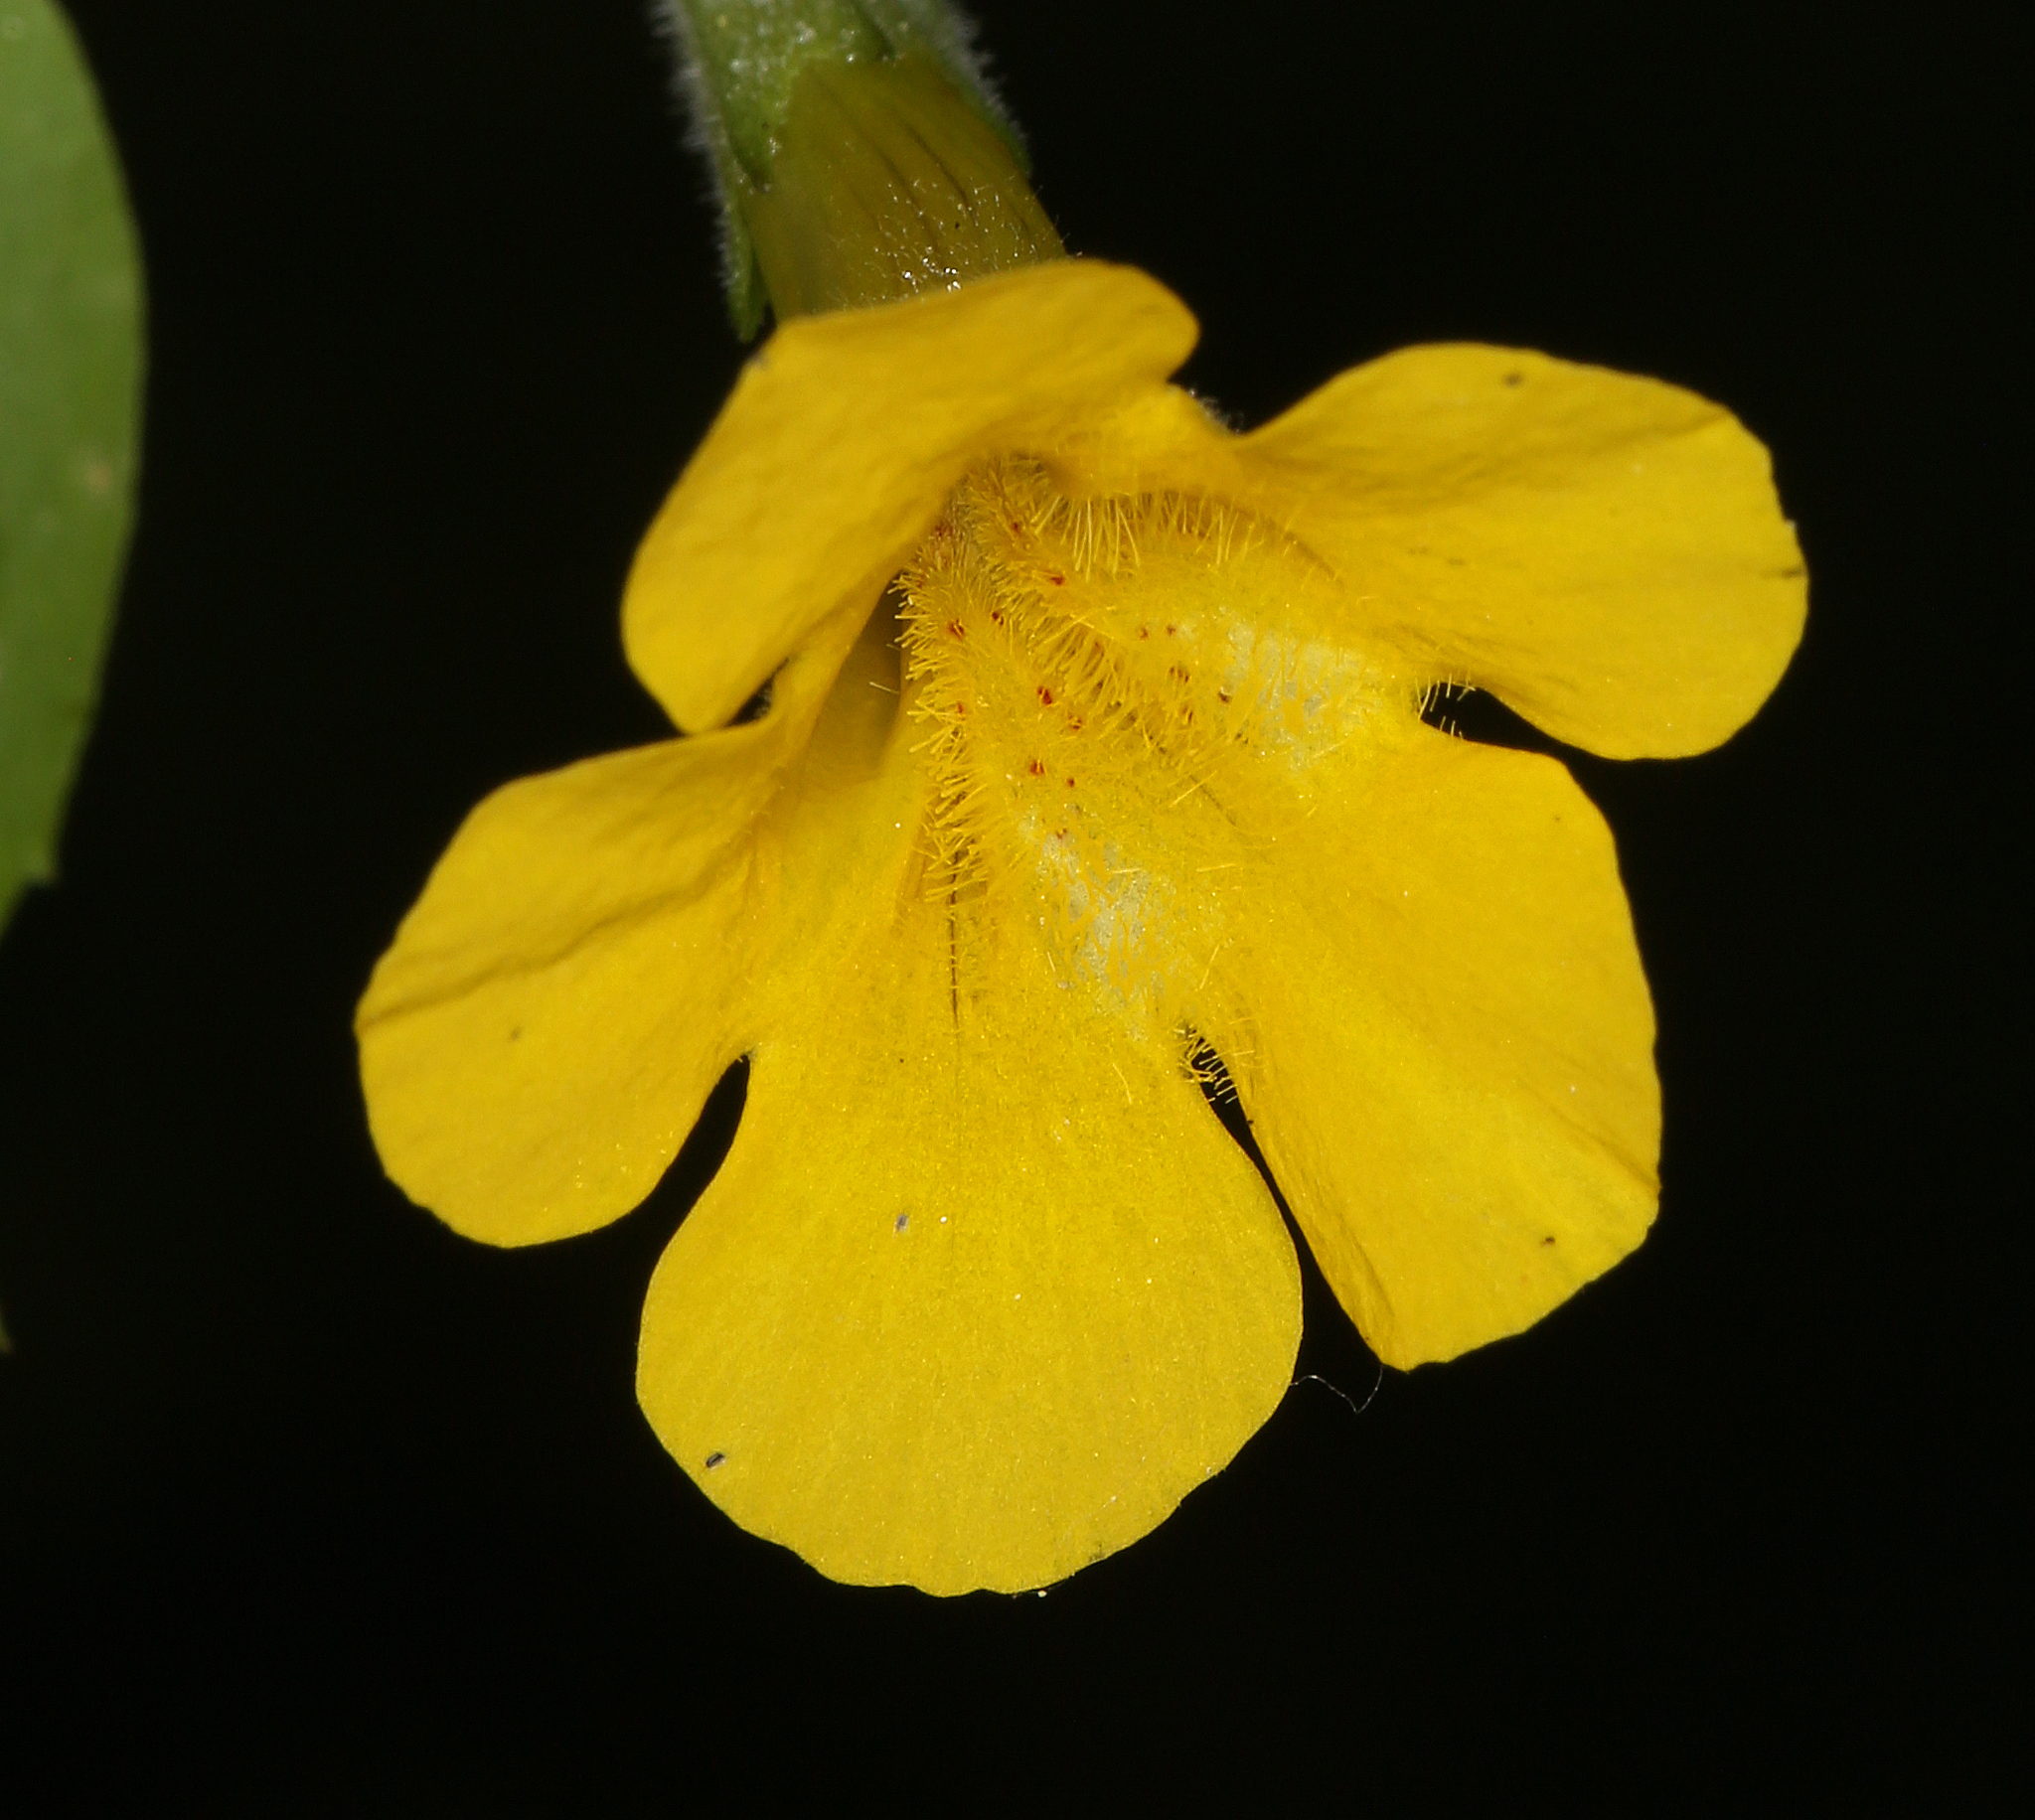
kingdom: Plantae
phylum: Tracheophyta
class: Magnoliopsida
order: Lamiales
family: Phrymaceae
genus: Erythranthe
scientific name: Erythranthe moschata
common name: Muskflower
